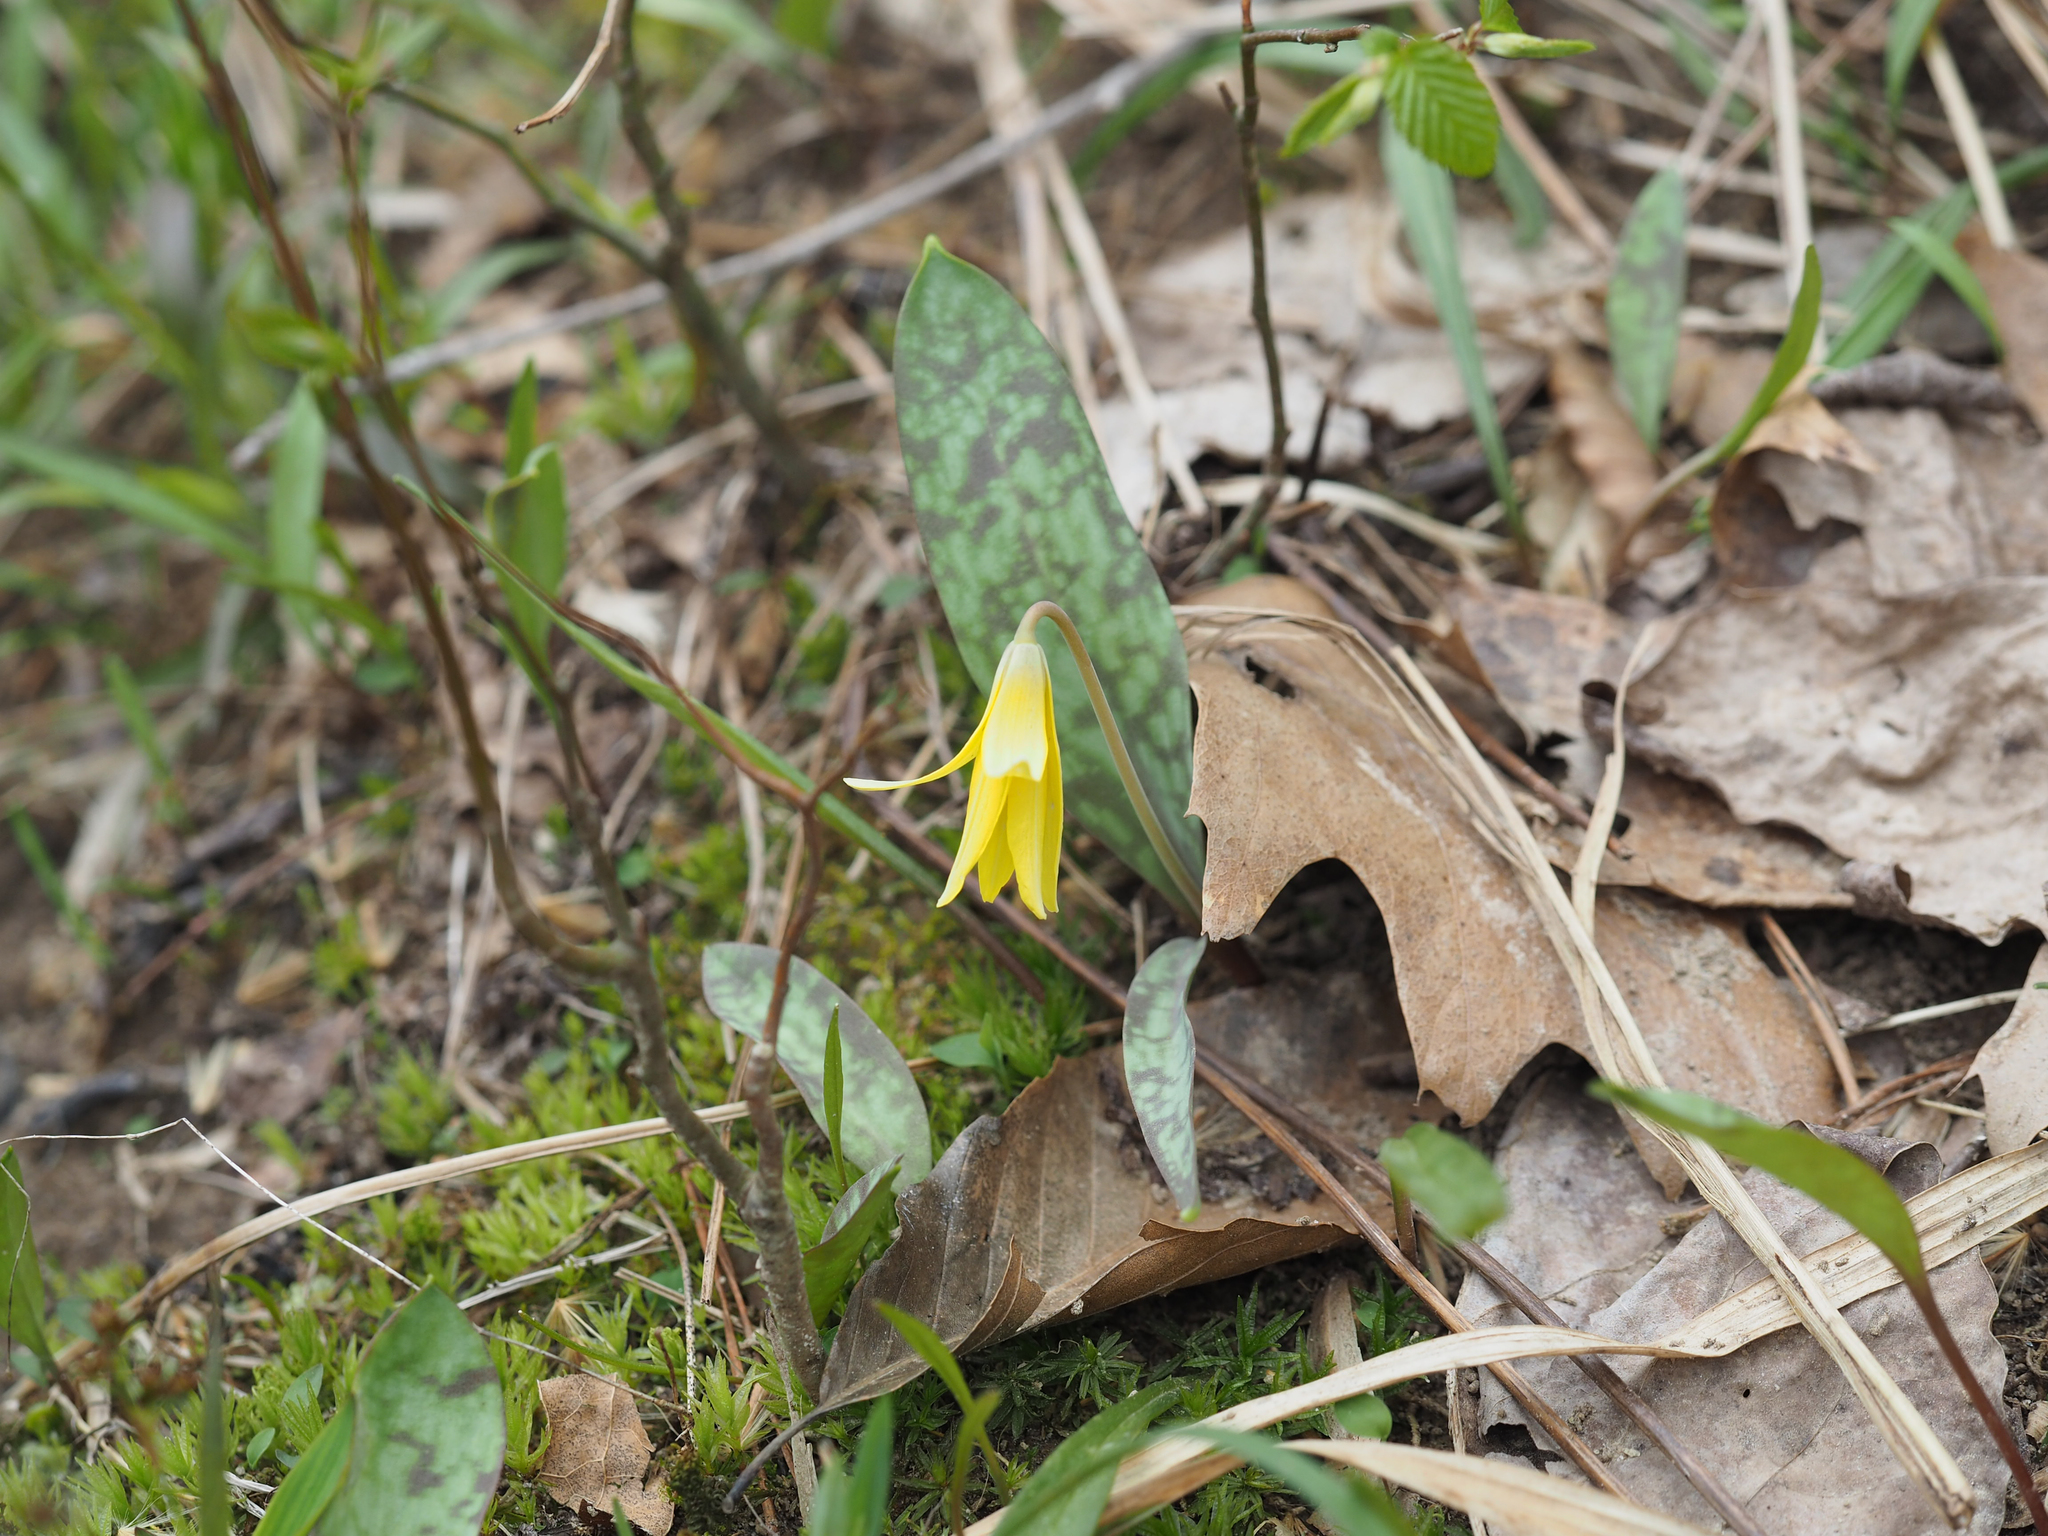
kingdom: Plantae
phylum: Tracheophyta
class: Liliopsida
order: Liliales
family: Liliaceae
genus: Erythronium
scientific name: Erythronium americanum
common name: Yellow adder's-tongue
